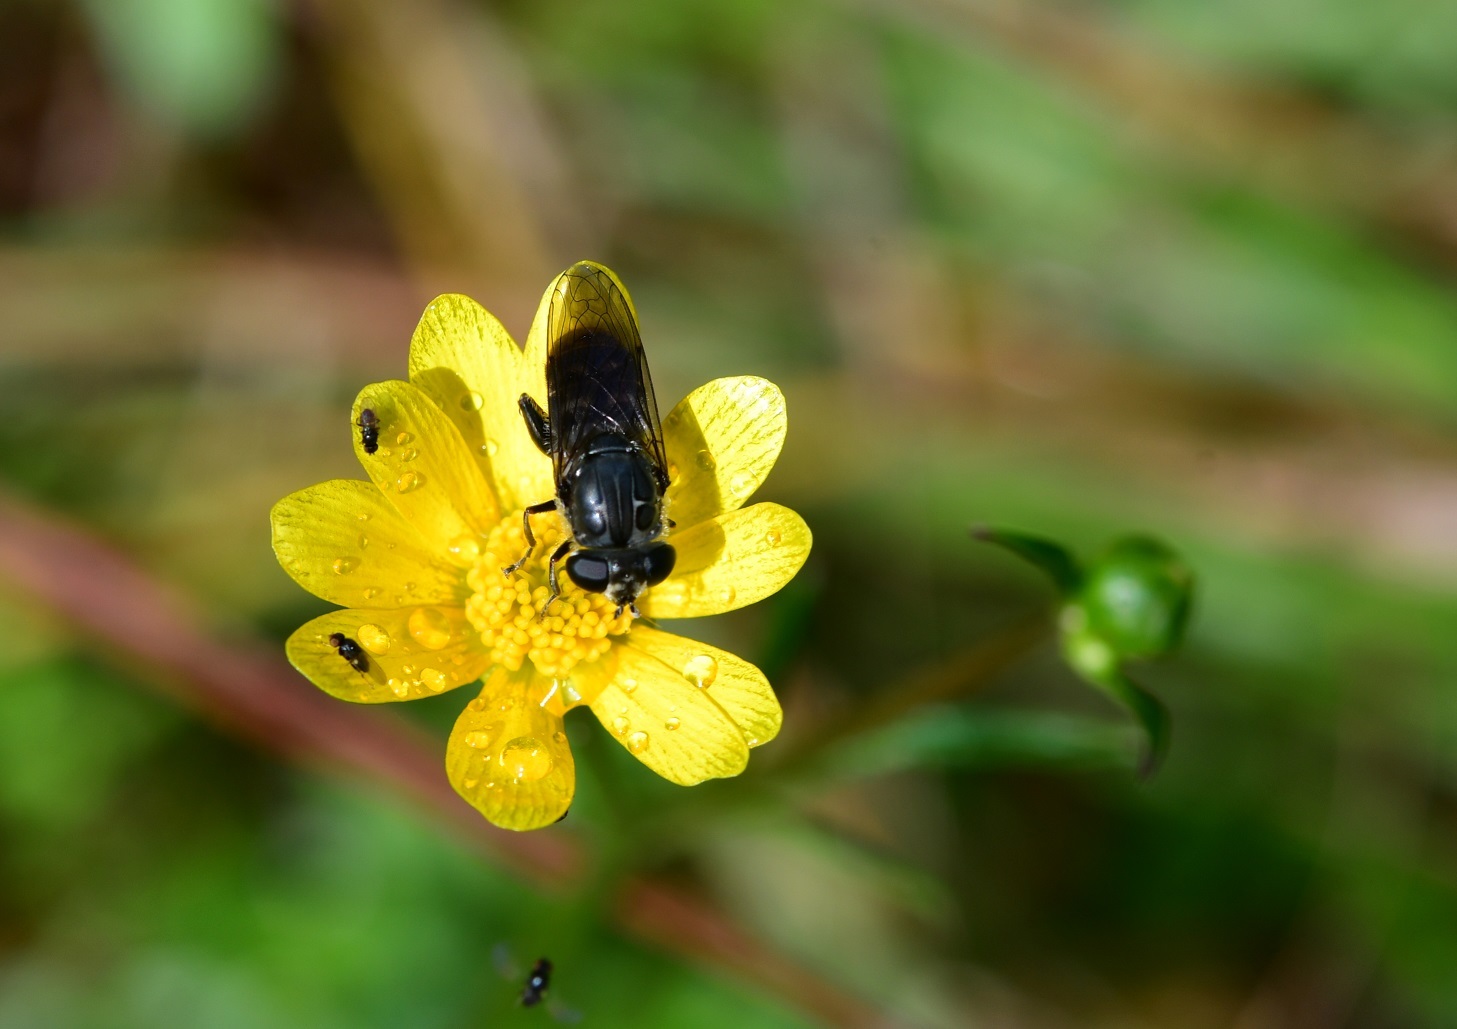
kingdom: Animalia
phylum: Arthropoda
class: Insecta
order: Diptera
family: Syrphidae
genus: Asemosyrphus
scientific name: Asemosyrphus
